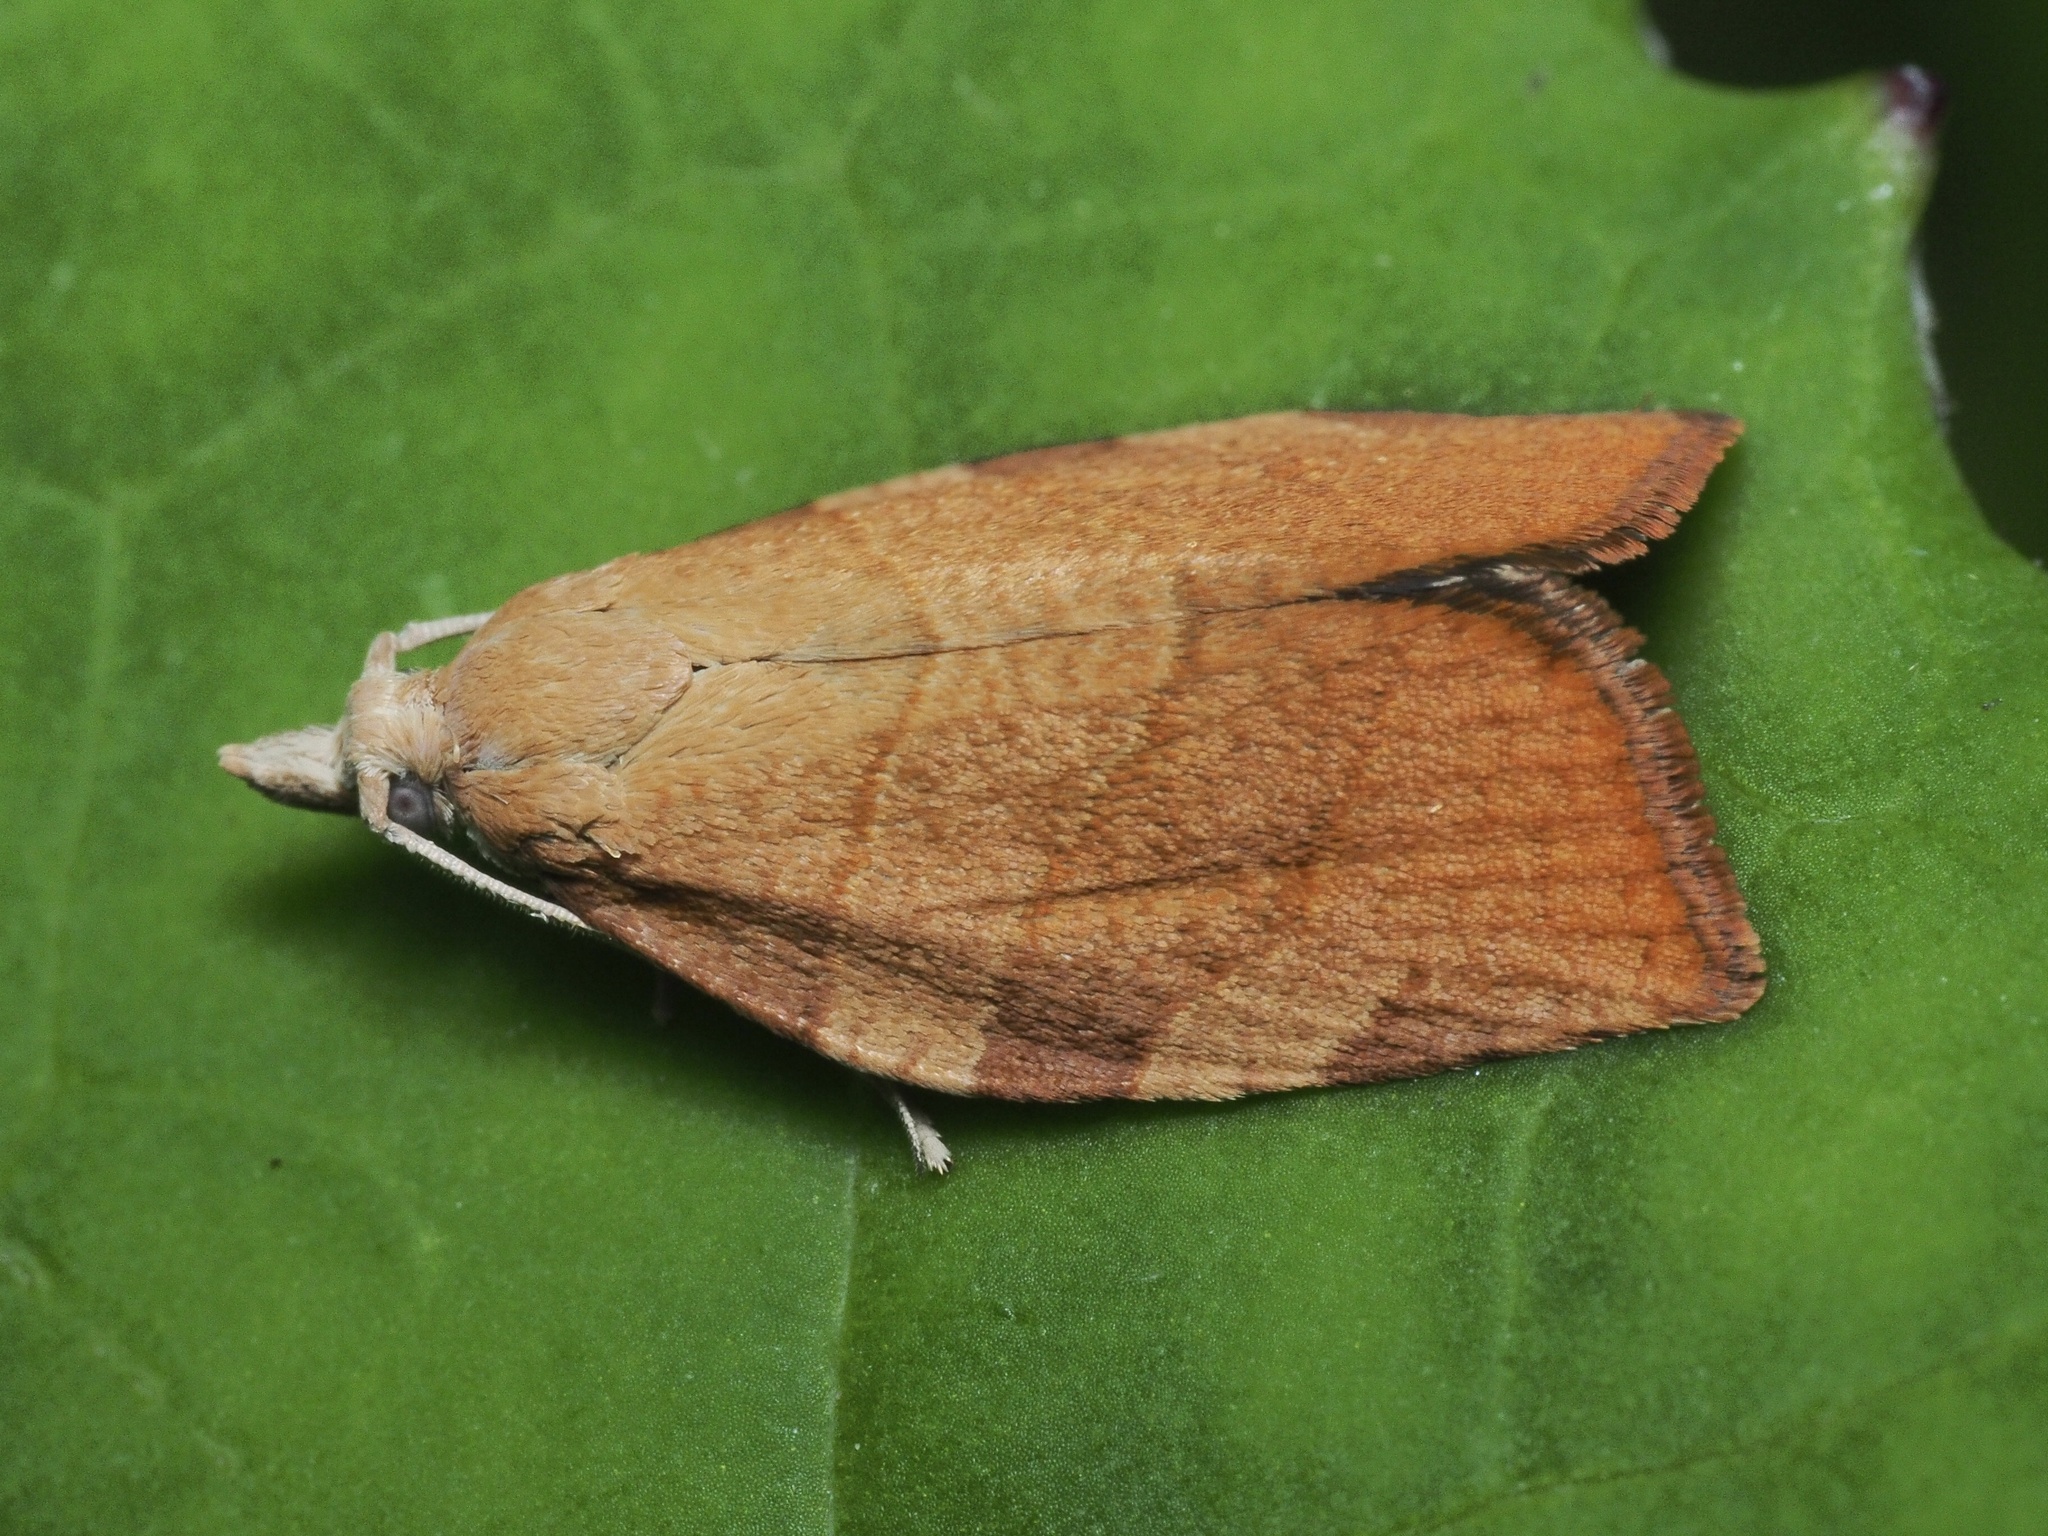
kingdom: Animalia
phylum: Arthropoda
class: Insecta
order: Lepidoptera
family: Tortricidae
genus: Pandemis
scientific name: Pandemis cerasana
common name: Barred fruit-tree tortrix
